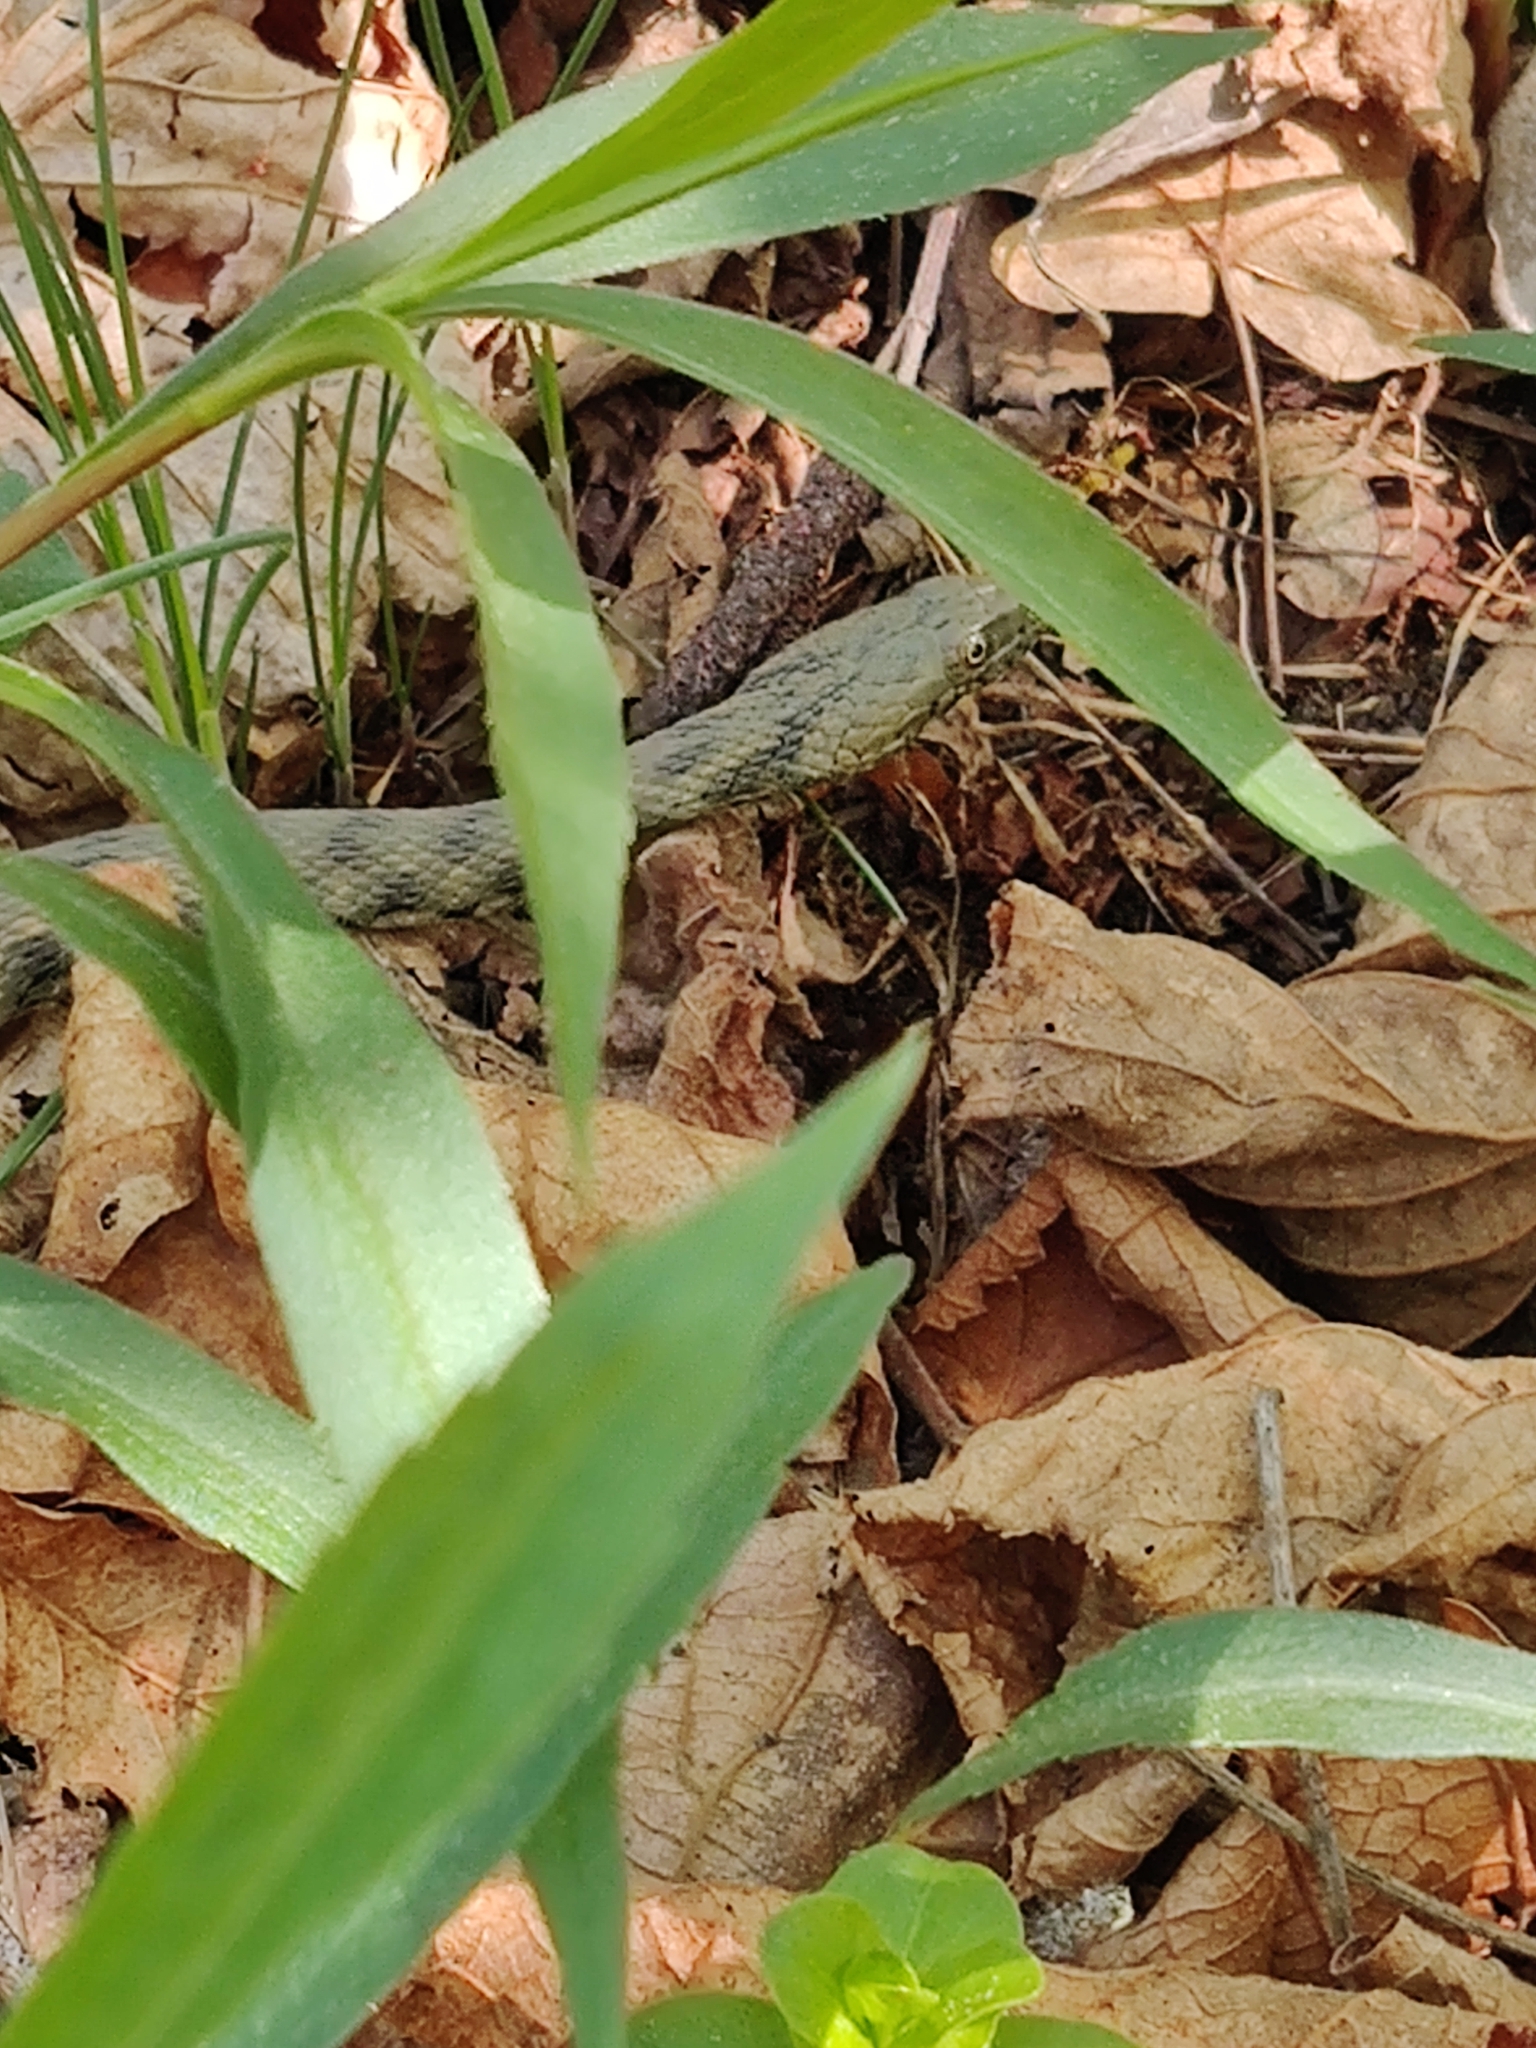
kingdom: Animalia
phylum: Chordata
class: Squamata
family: Colubridae
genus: Natrix
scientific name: Natrix tessellata
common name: Dice snake
